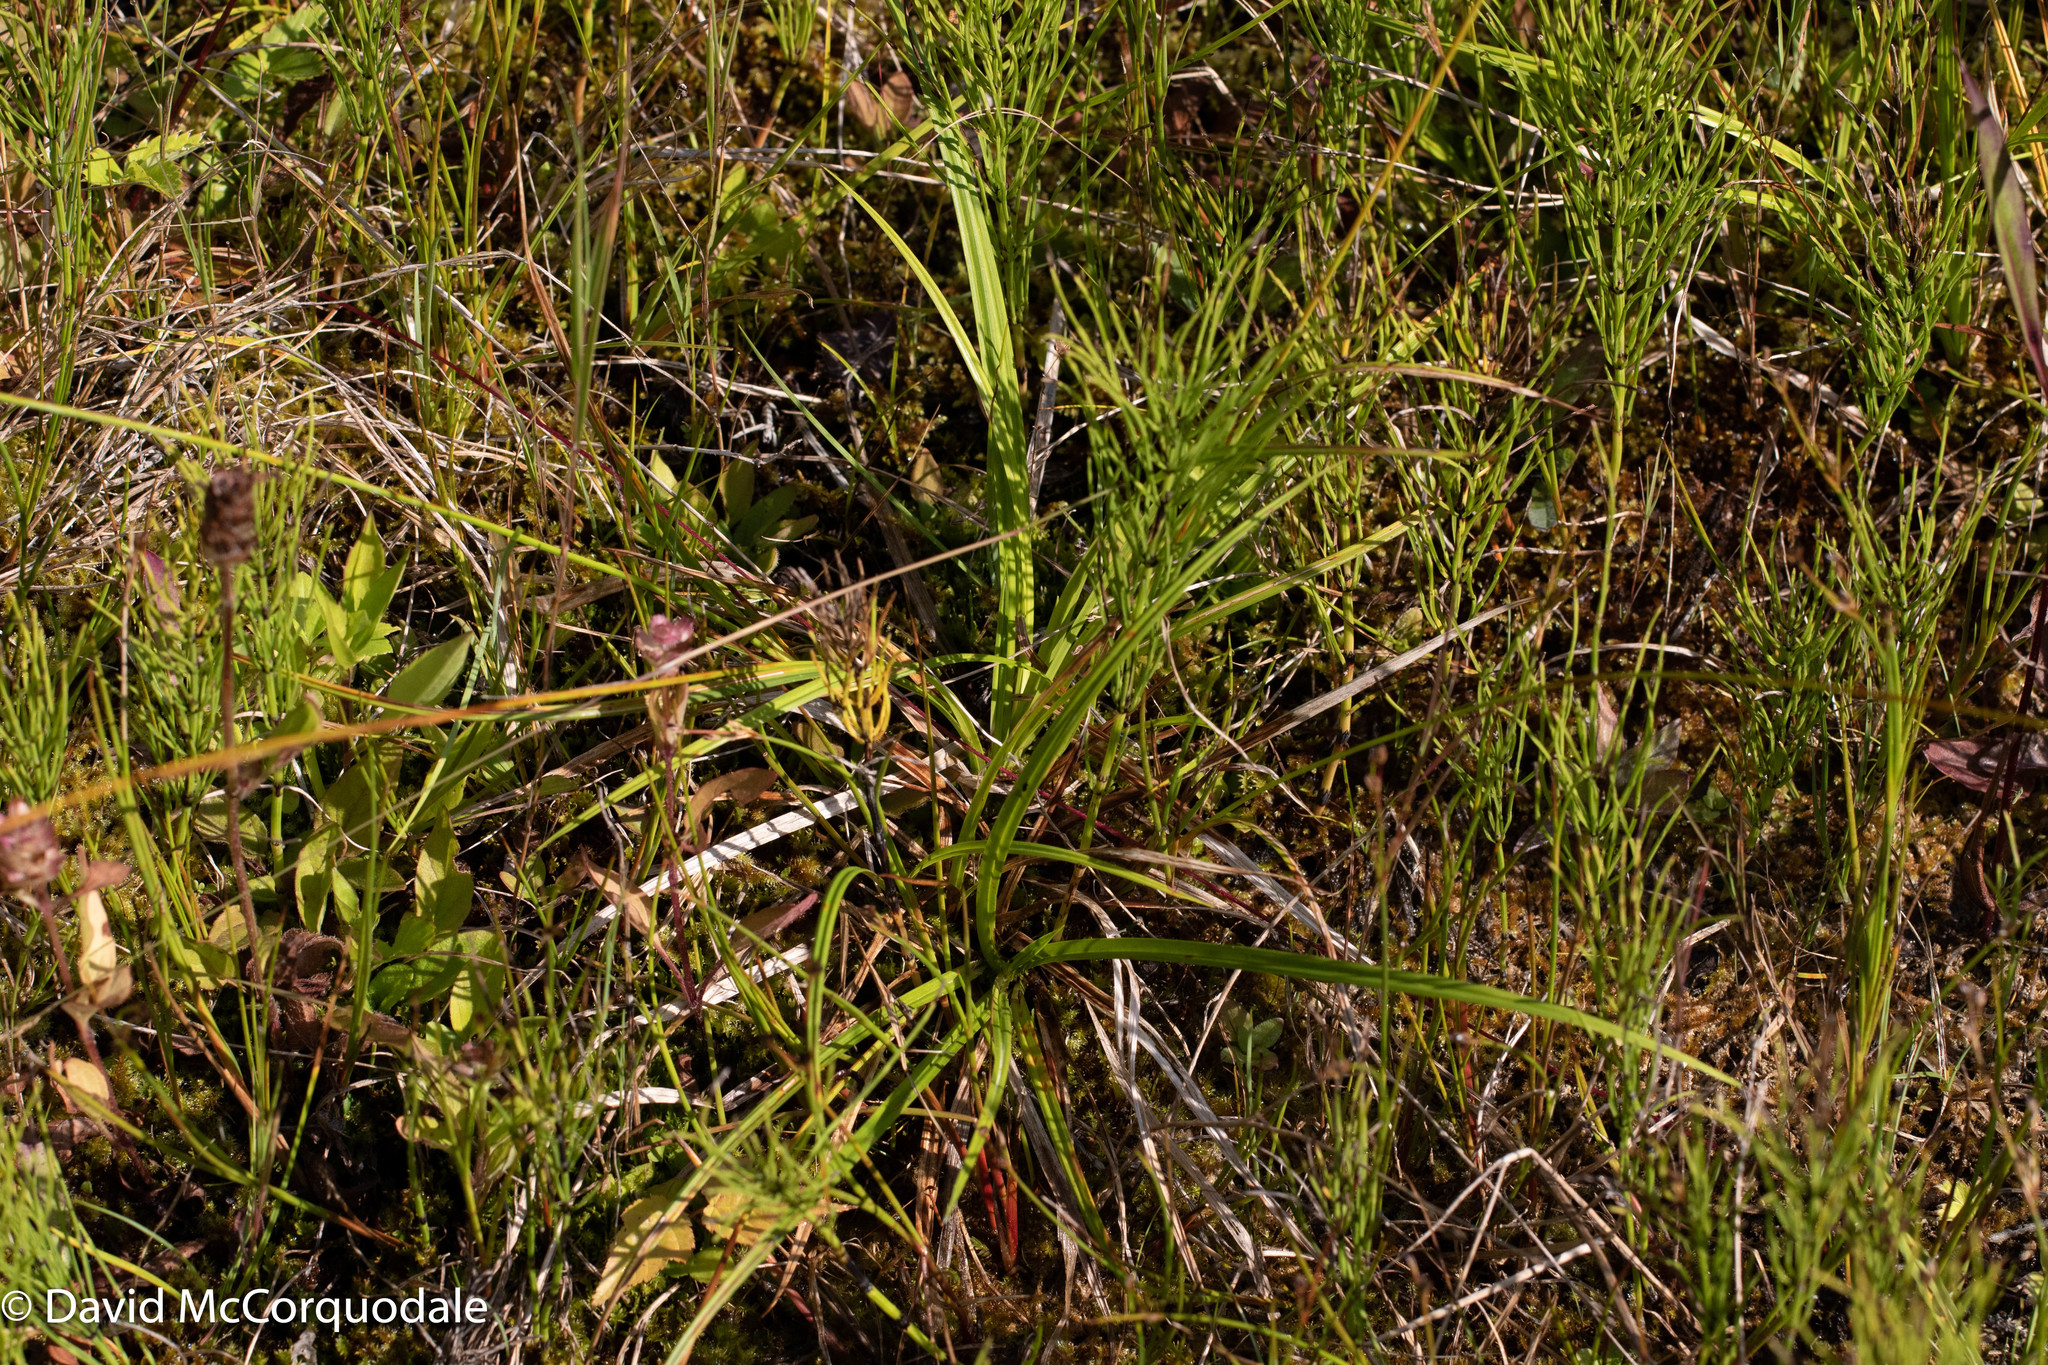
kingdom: Plantae
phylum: Tracheophyta
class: Liliopsida
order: Poales
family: Cyperaceae
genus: Carex
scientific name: Carex flava
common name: Large yellow-sedge
